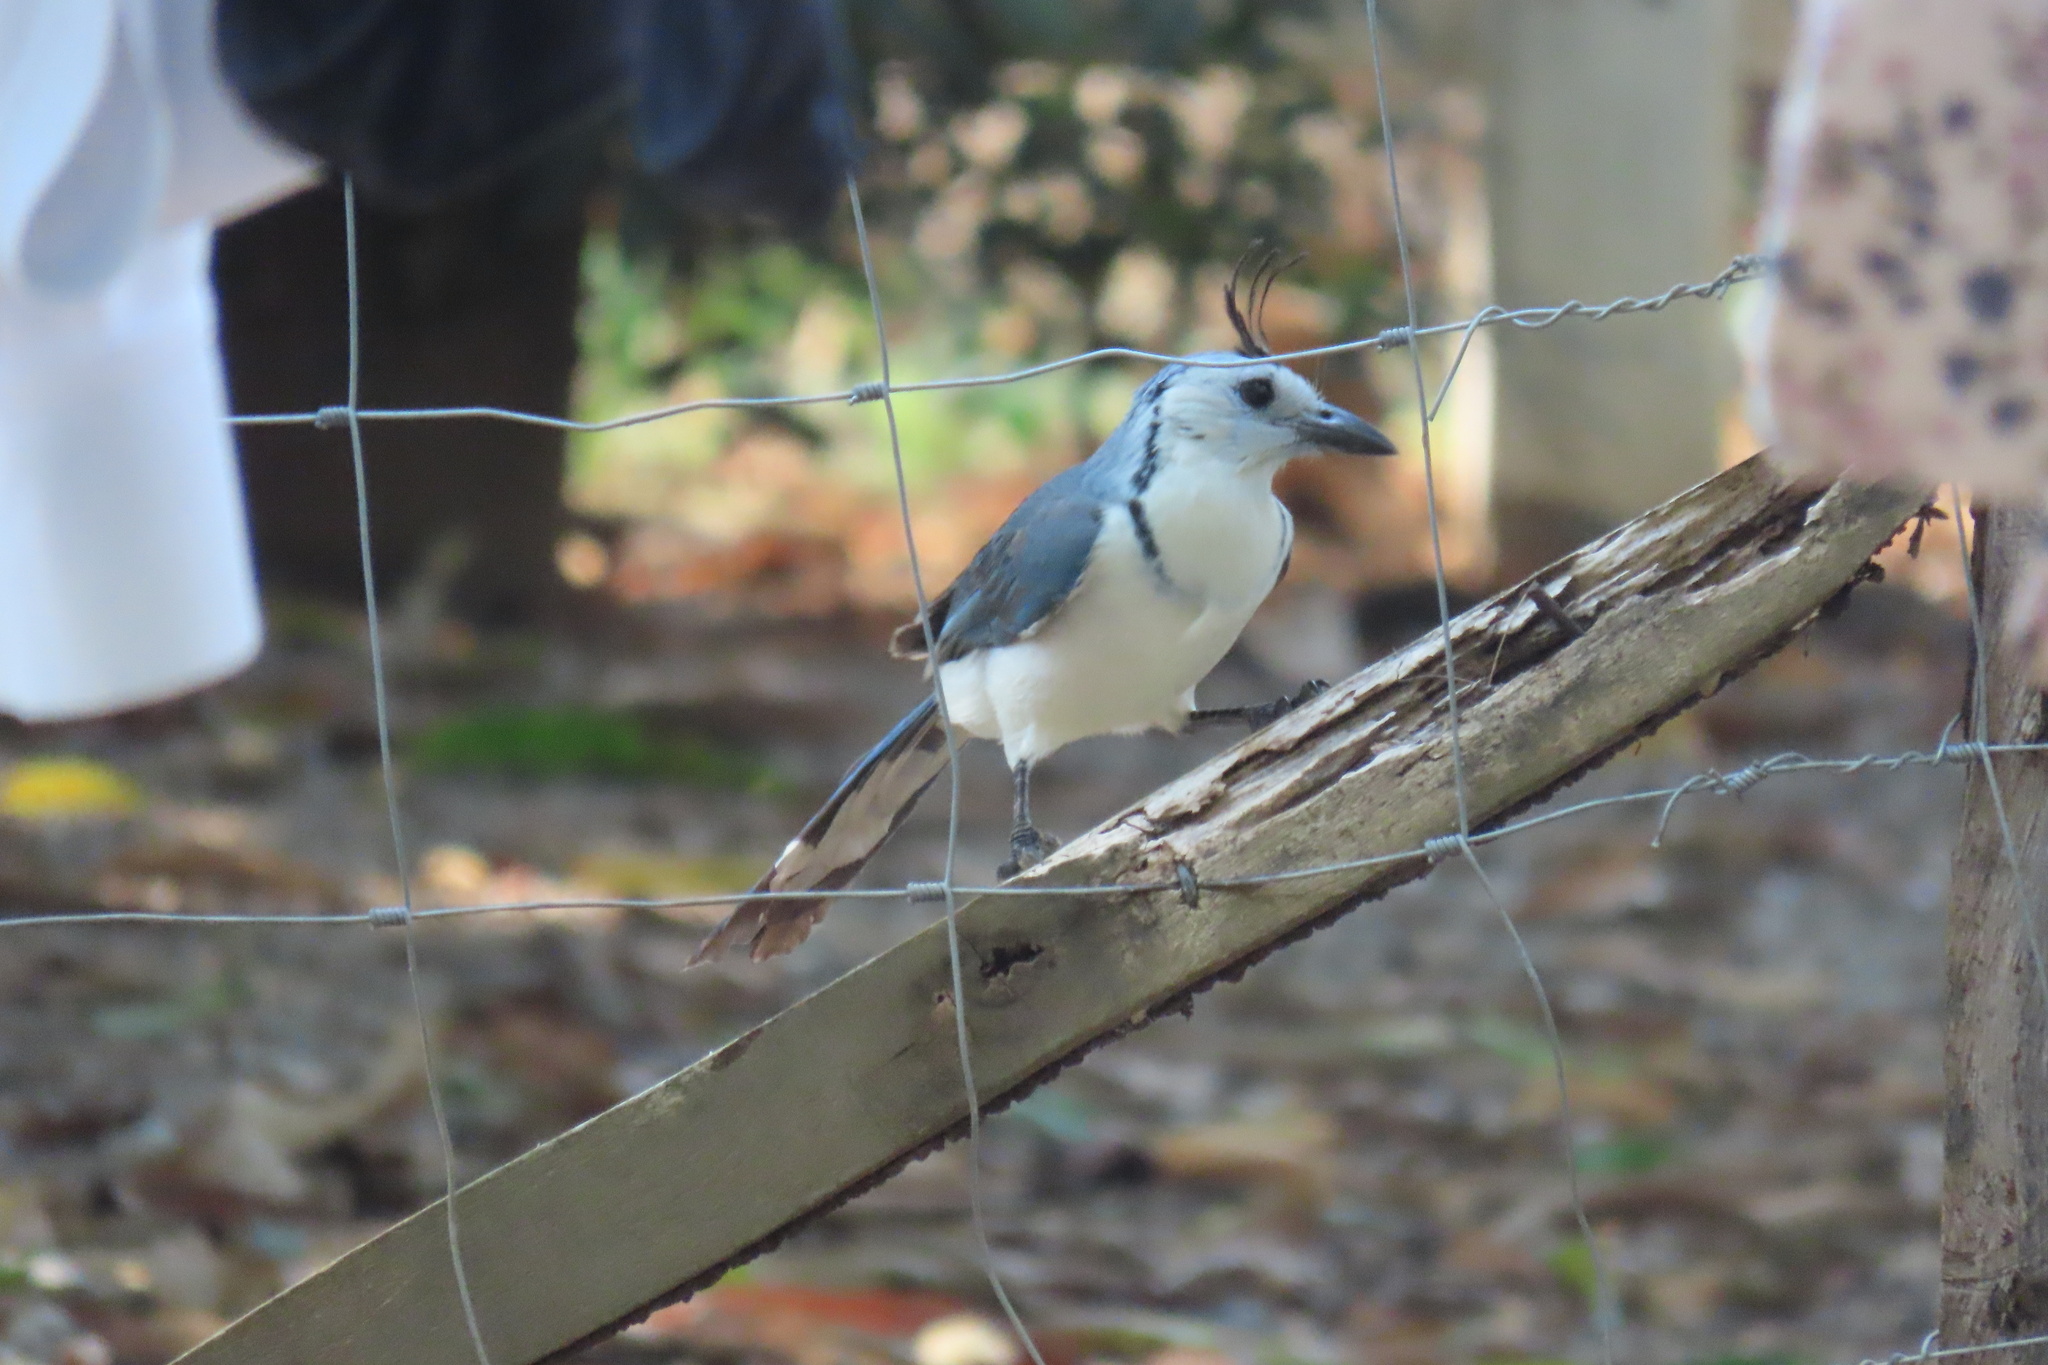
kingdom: Animalia
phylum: Chordata
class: Aves
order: Passeriformes
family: Corvidae
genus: Calocitta
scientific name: Calocitta formosa
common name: White-throated magpie-jay
